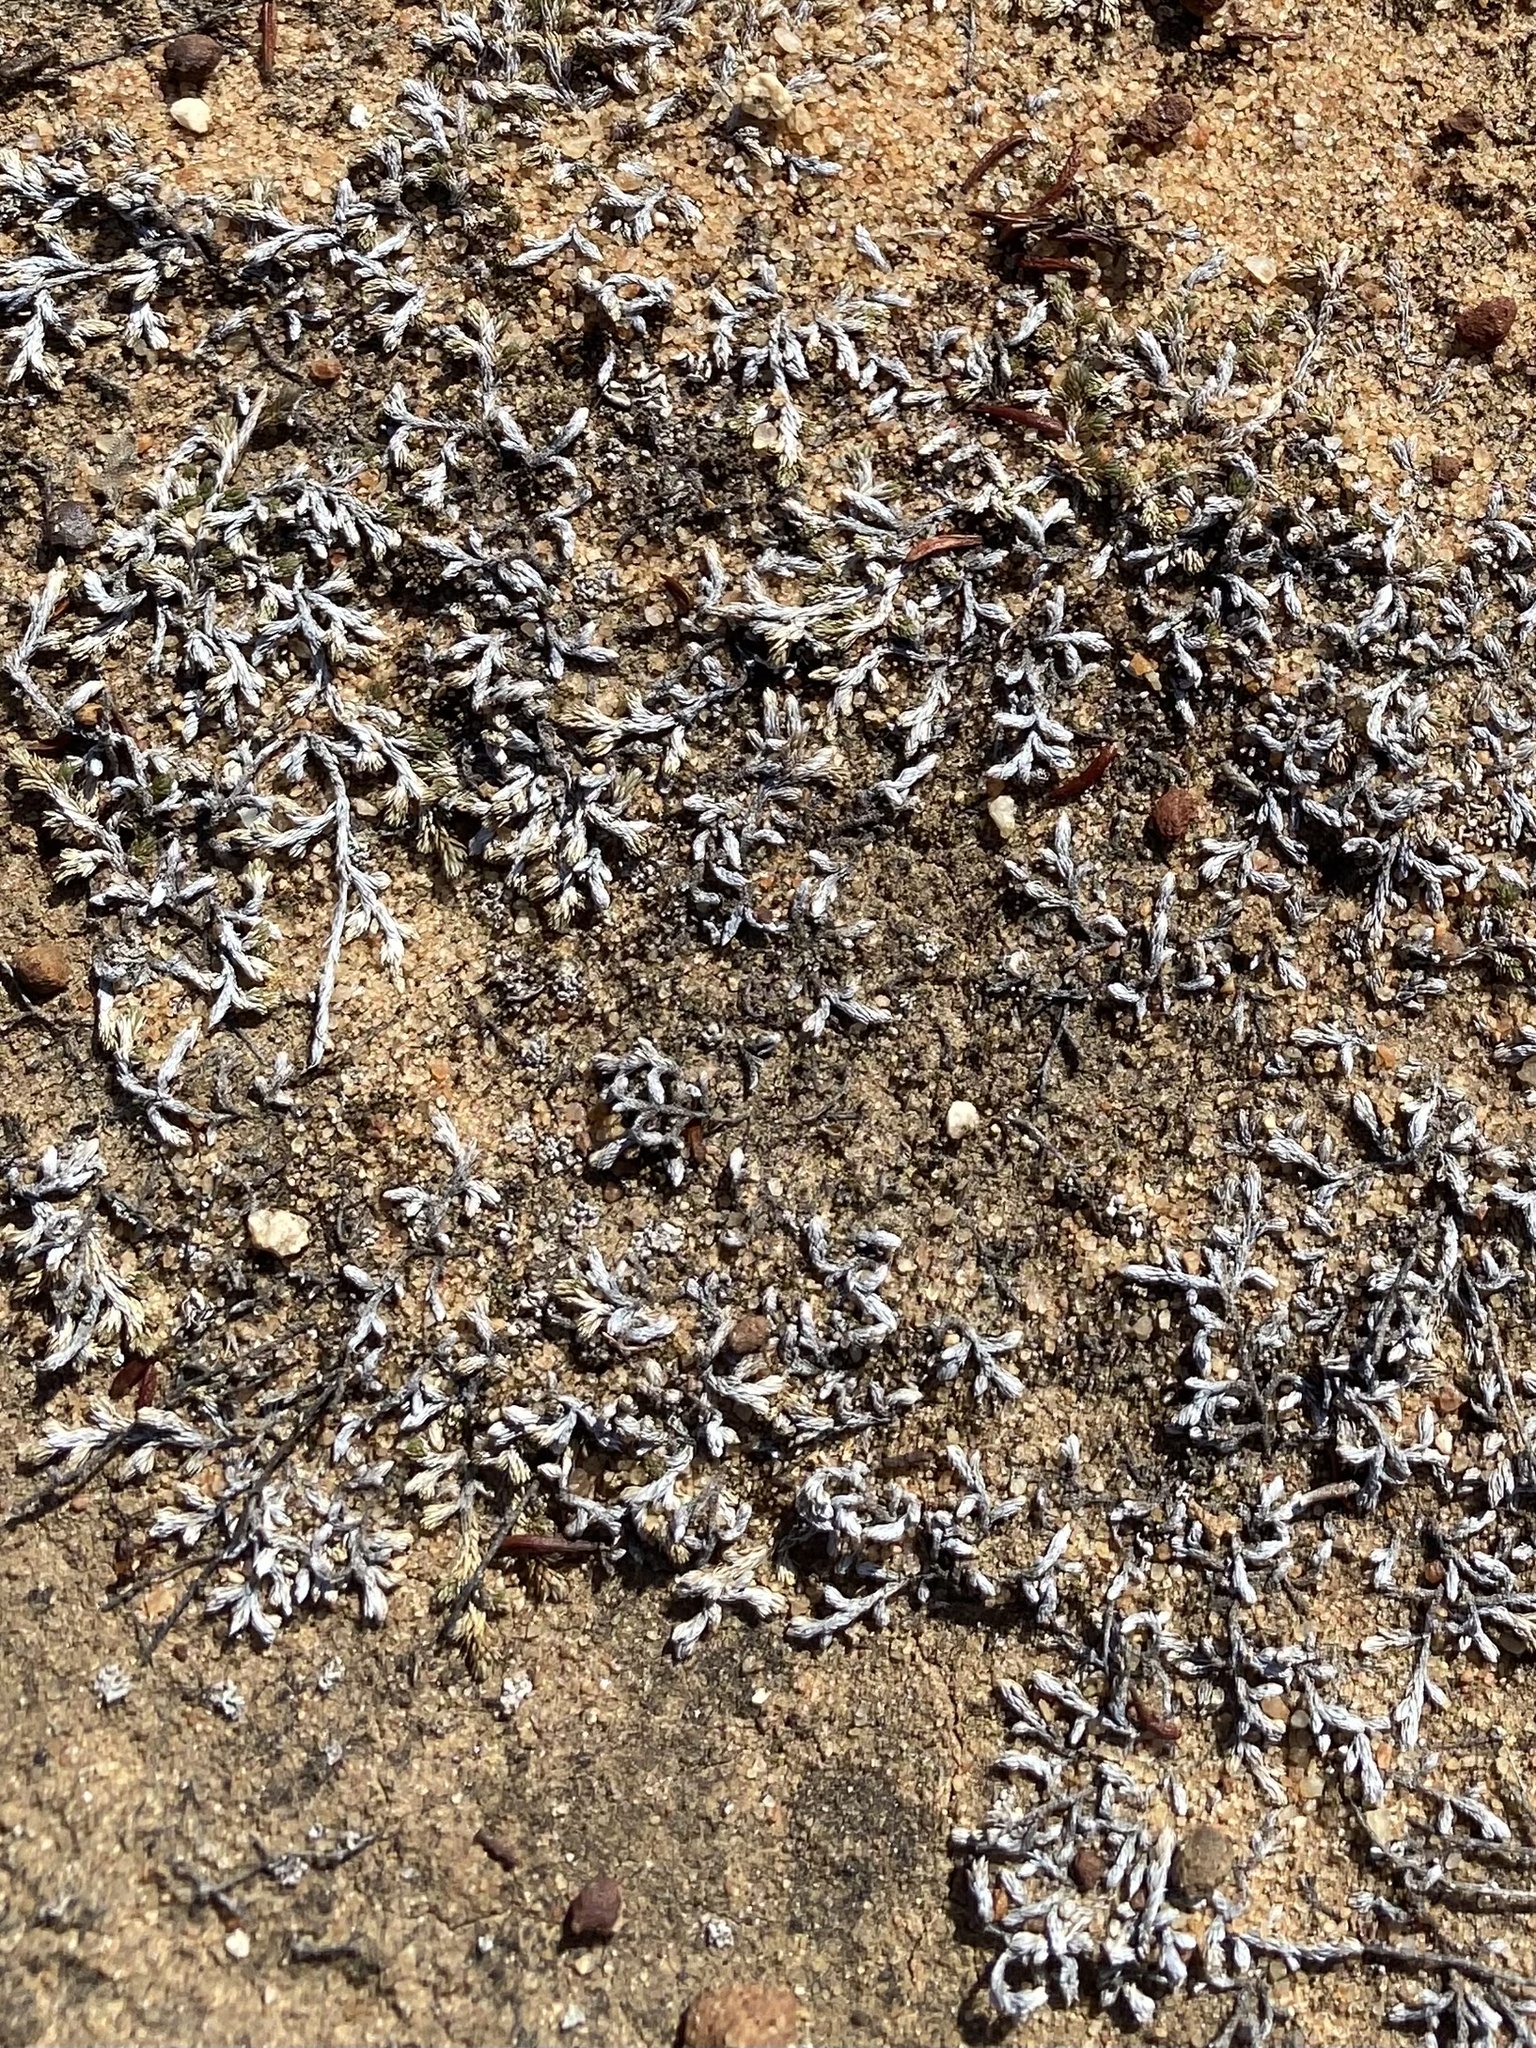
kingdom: Plantae
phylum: Tracheophyta
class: Lycopodiopsida
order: Selaginellales
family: Selaginellaceae
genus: Selaginella
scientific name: Selaginella cinerascens
